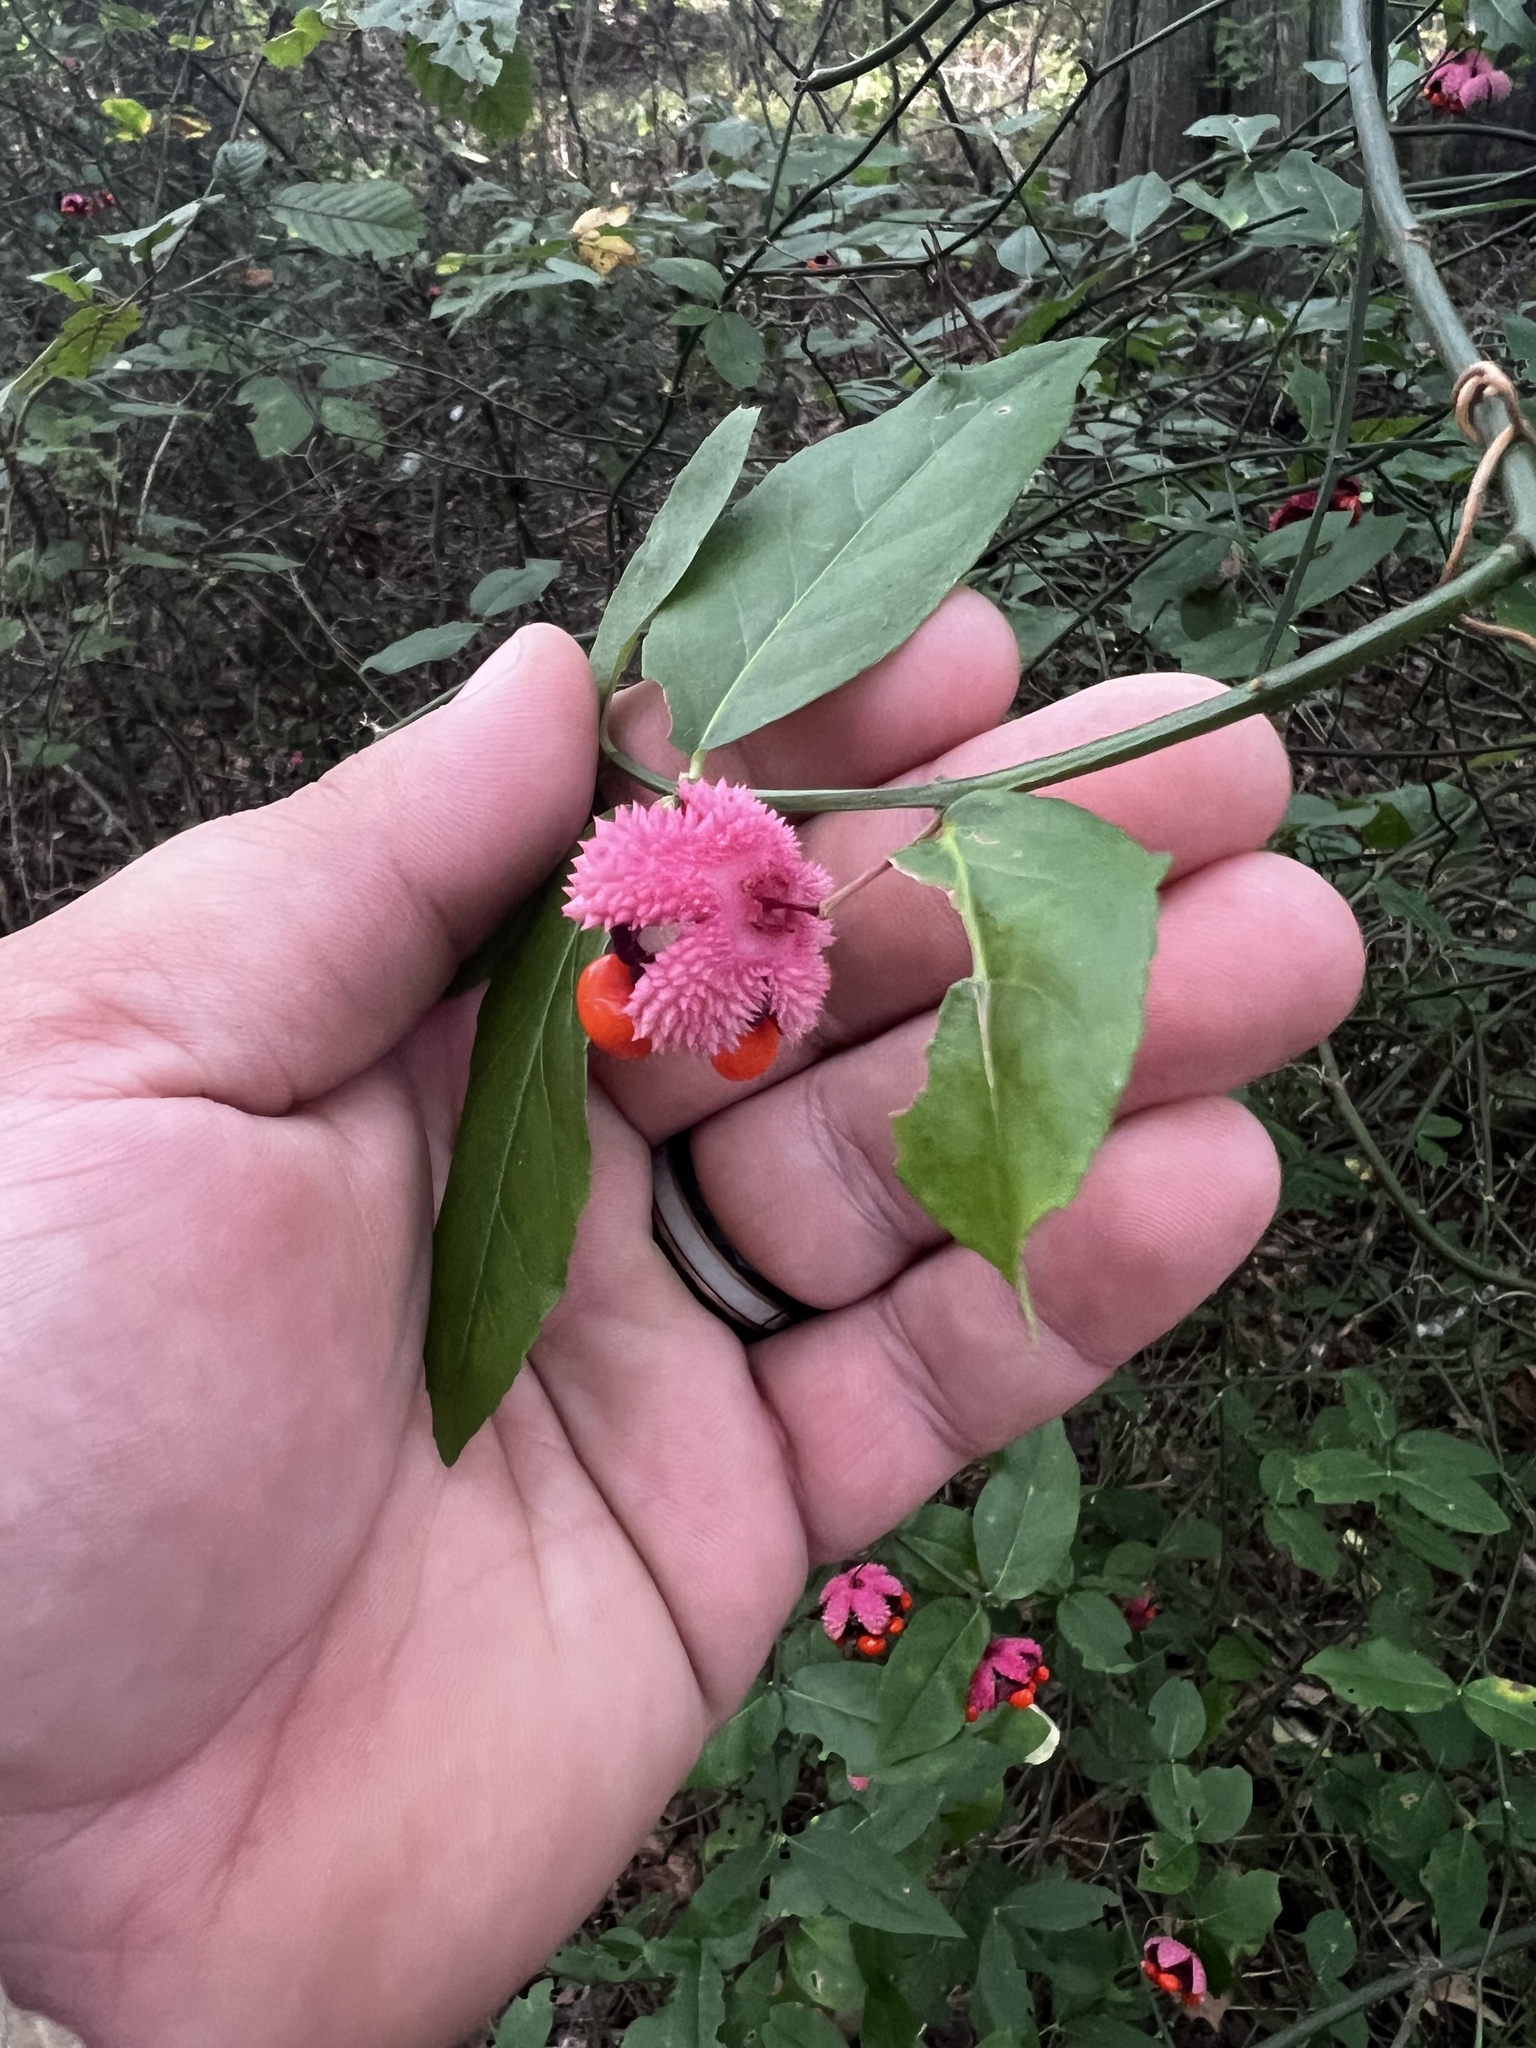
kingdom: Plantae
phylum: Tracheophyta
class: Magnoliopsida
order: Celastrales
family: Celastraceae
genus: Euonymus
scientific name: Euonymus americanus
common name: Bursting-heart
